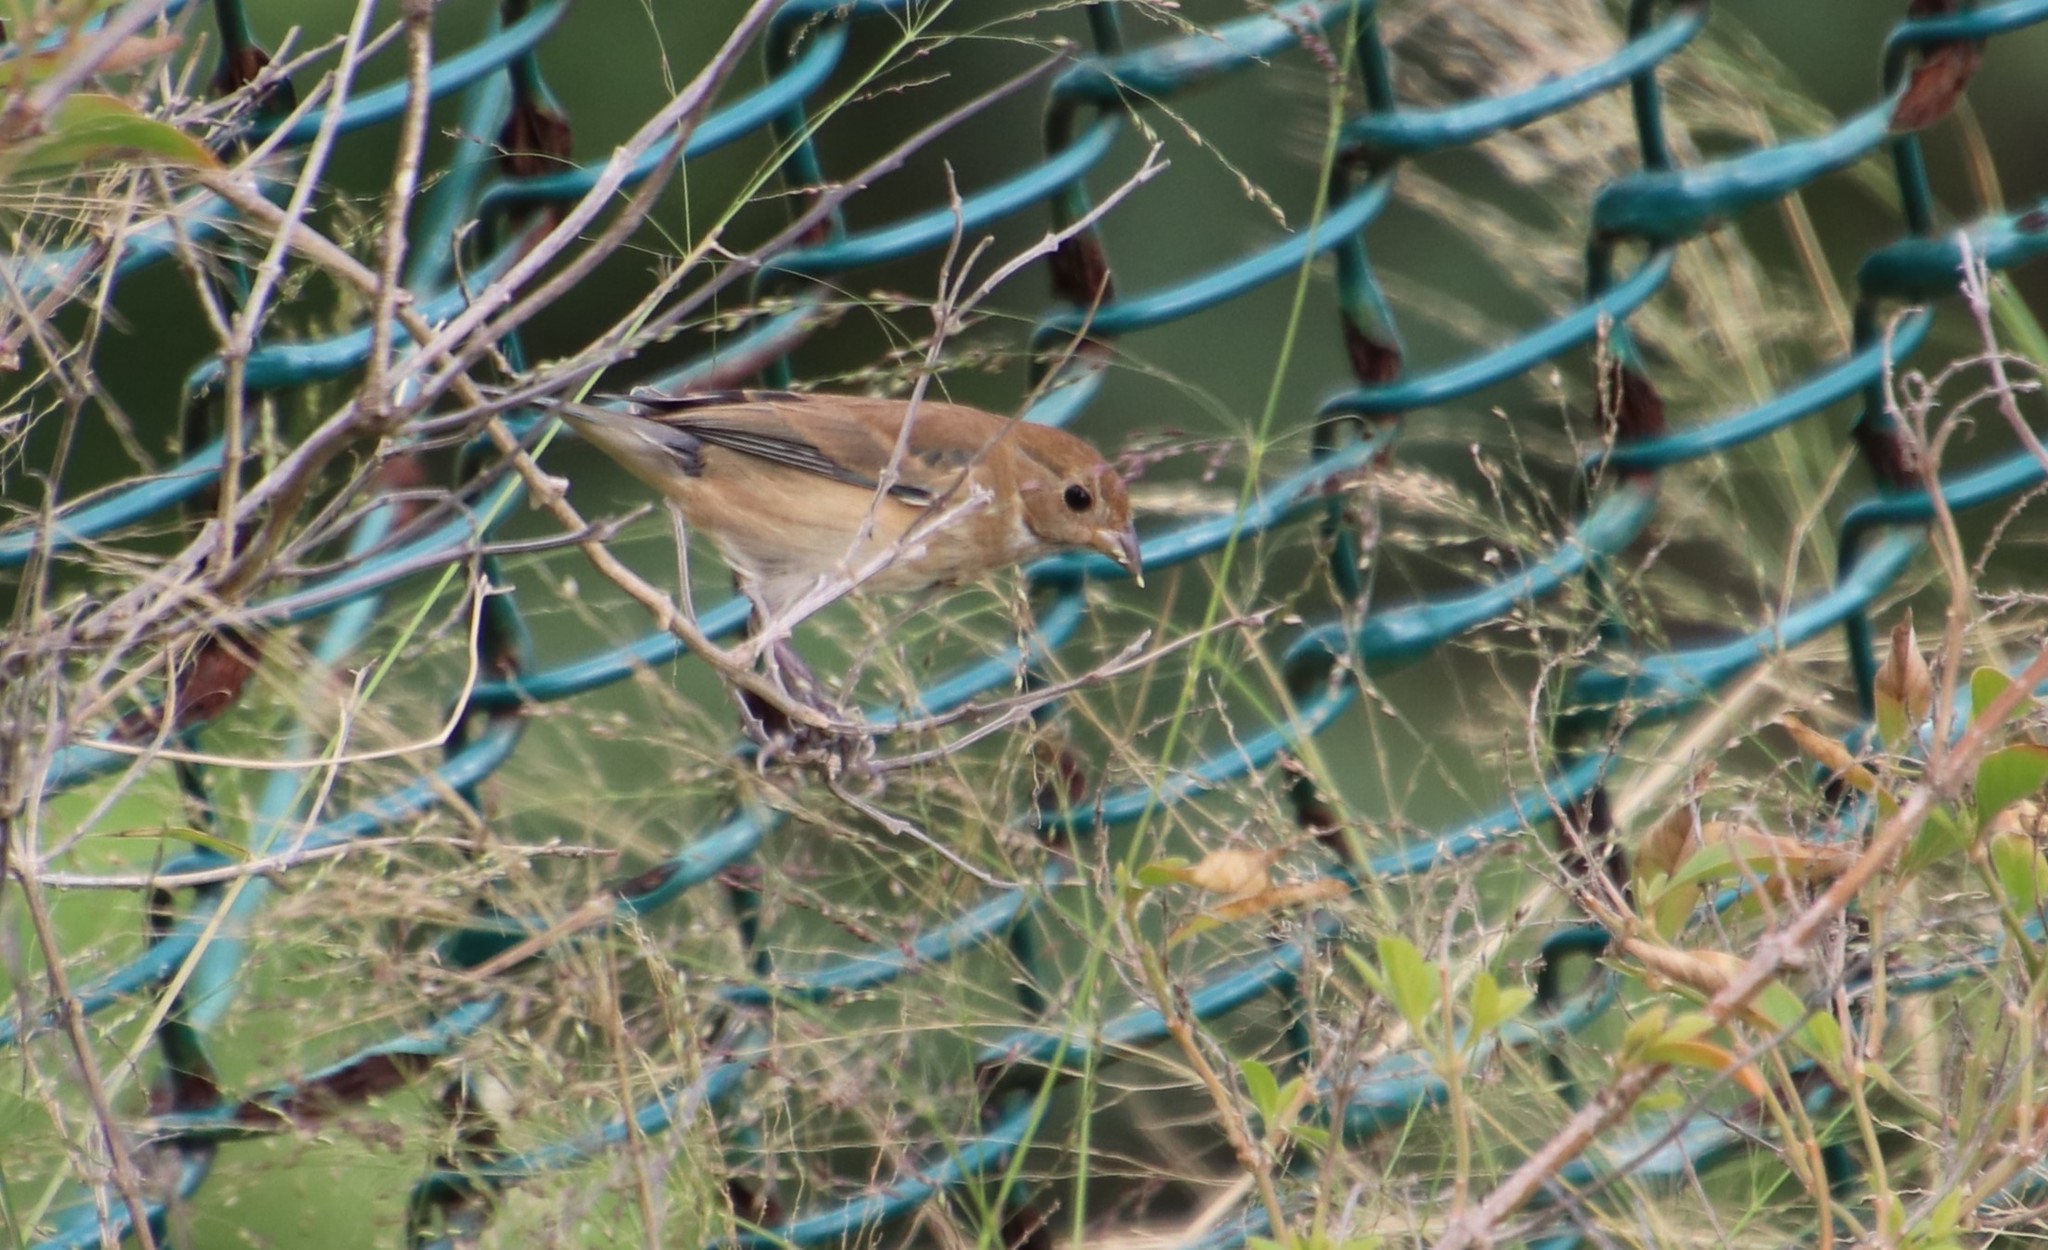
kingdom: Animalia
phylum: Chordata
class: Aves
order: Passeriformes
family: Cardinalidae
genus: Passerina
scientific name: Passerina cyanea
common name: Indigo bunting
